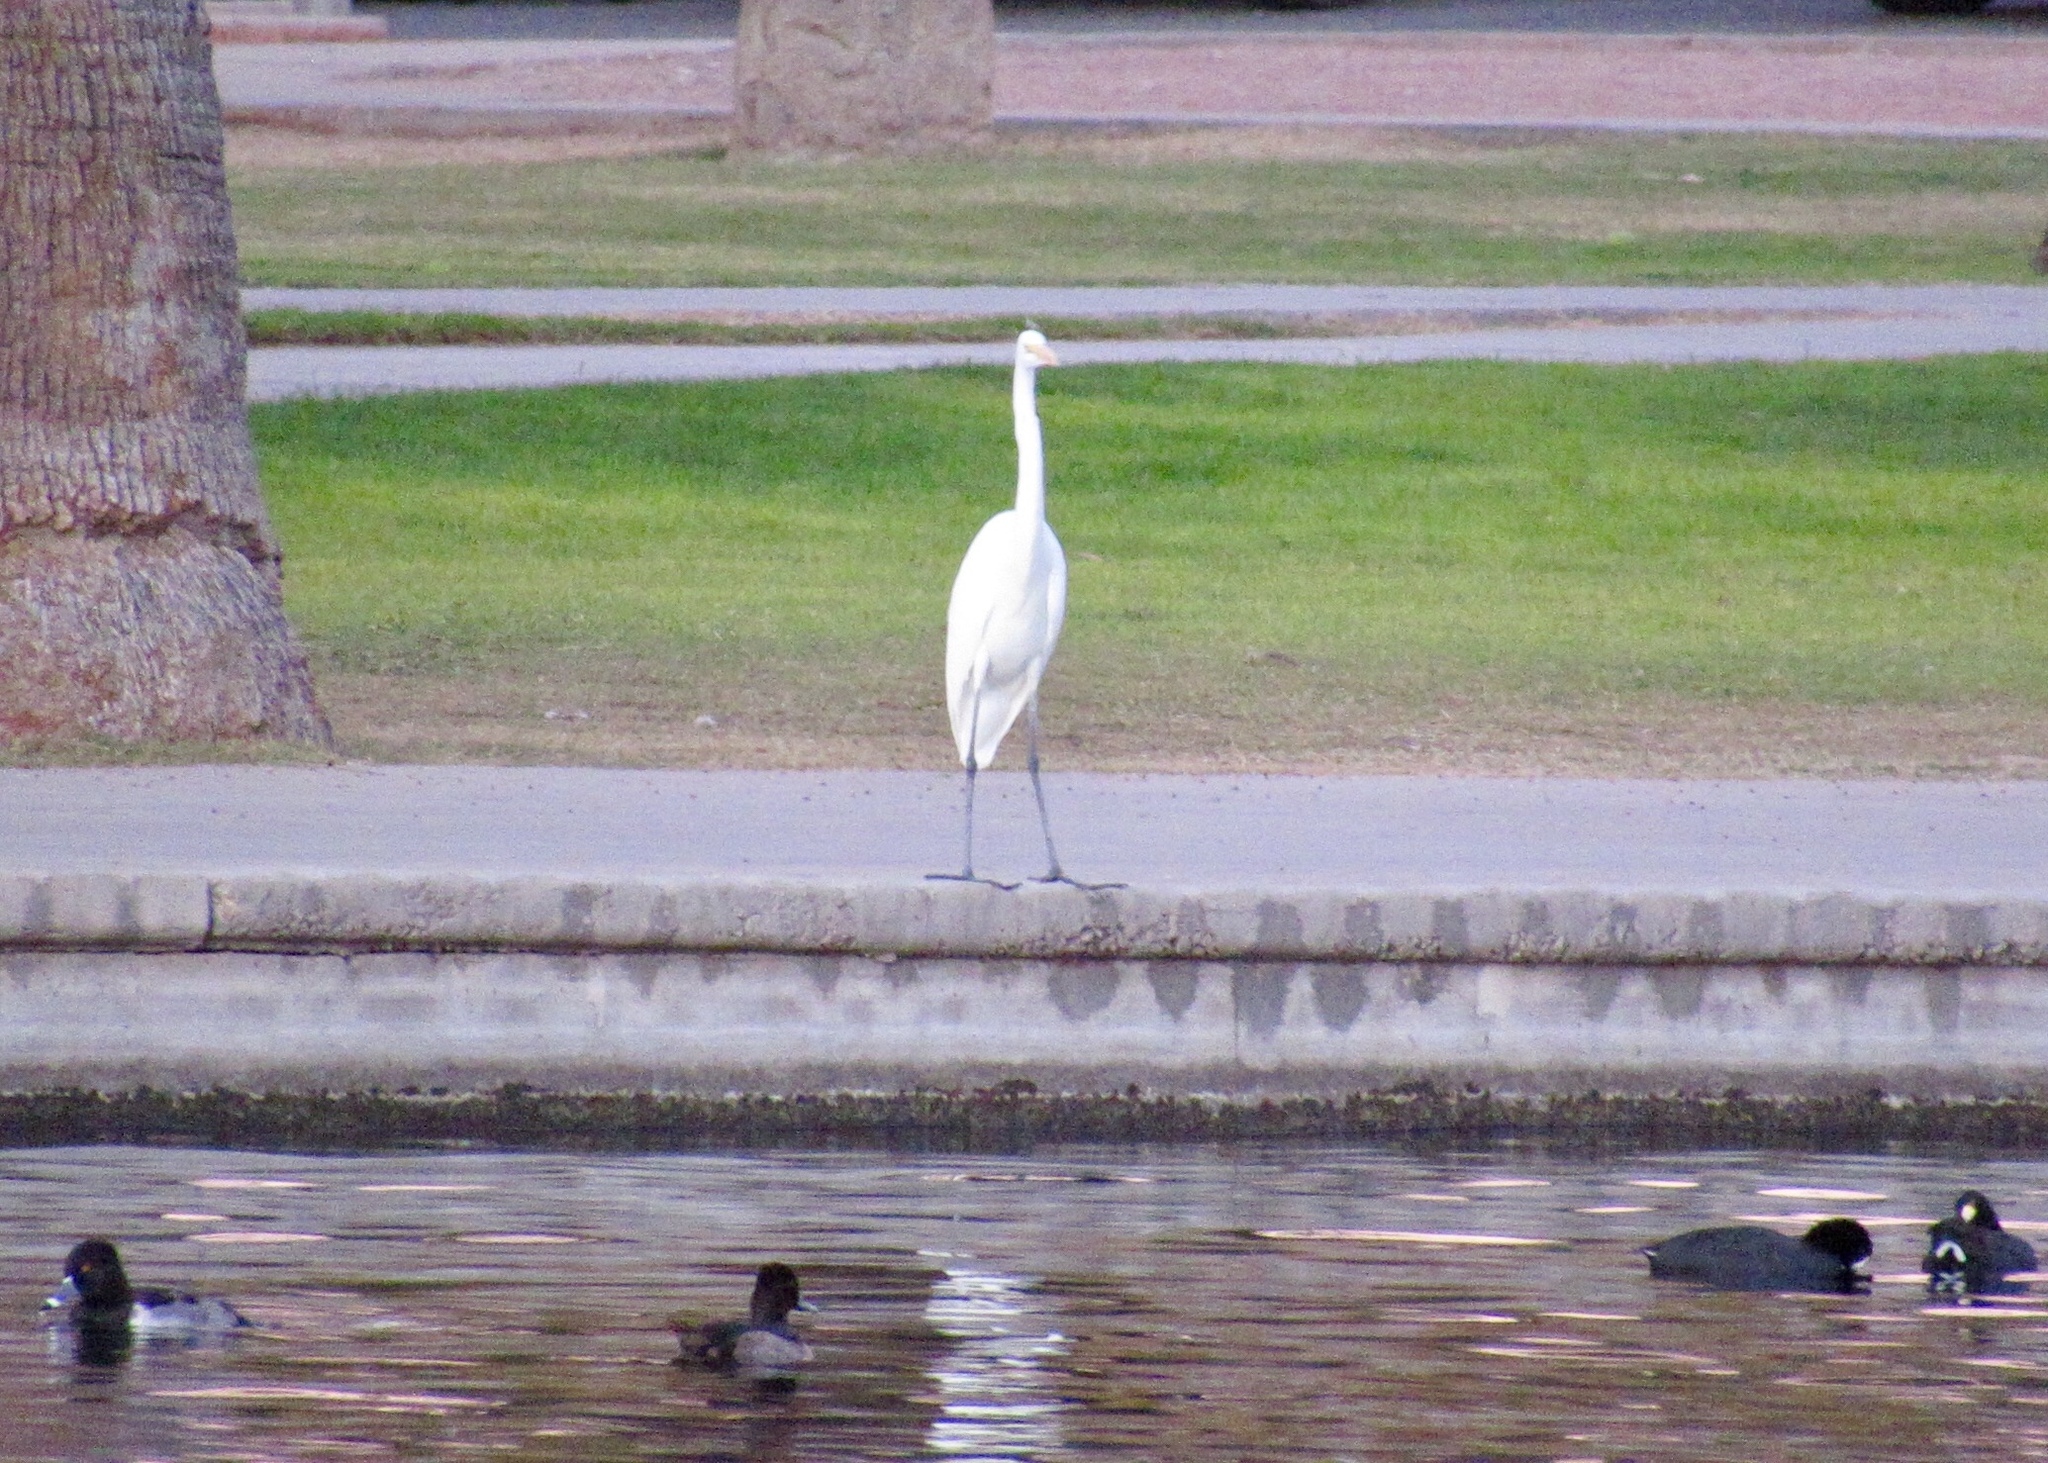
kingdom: Animalia
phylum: Chordata
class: Aves
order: Pelecaniformes
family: Ardeidae
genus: Ardea
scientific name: Ardea alba
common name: Great egret
